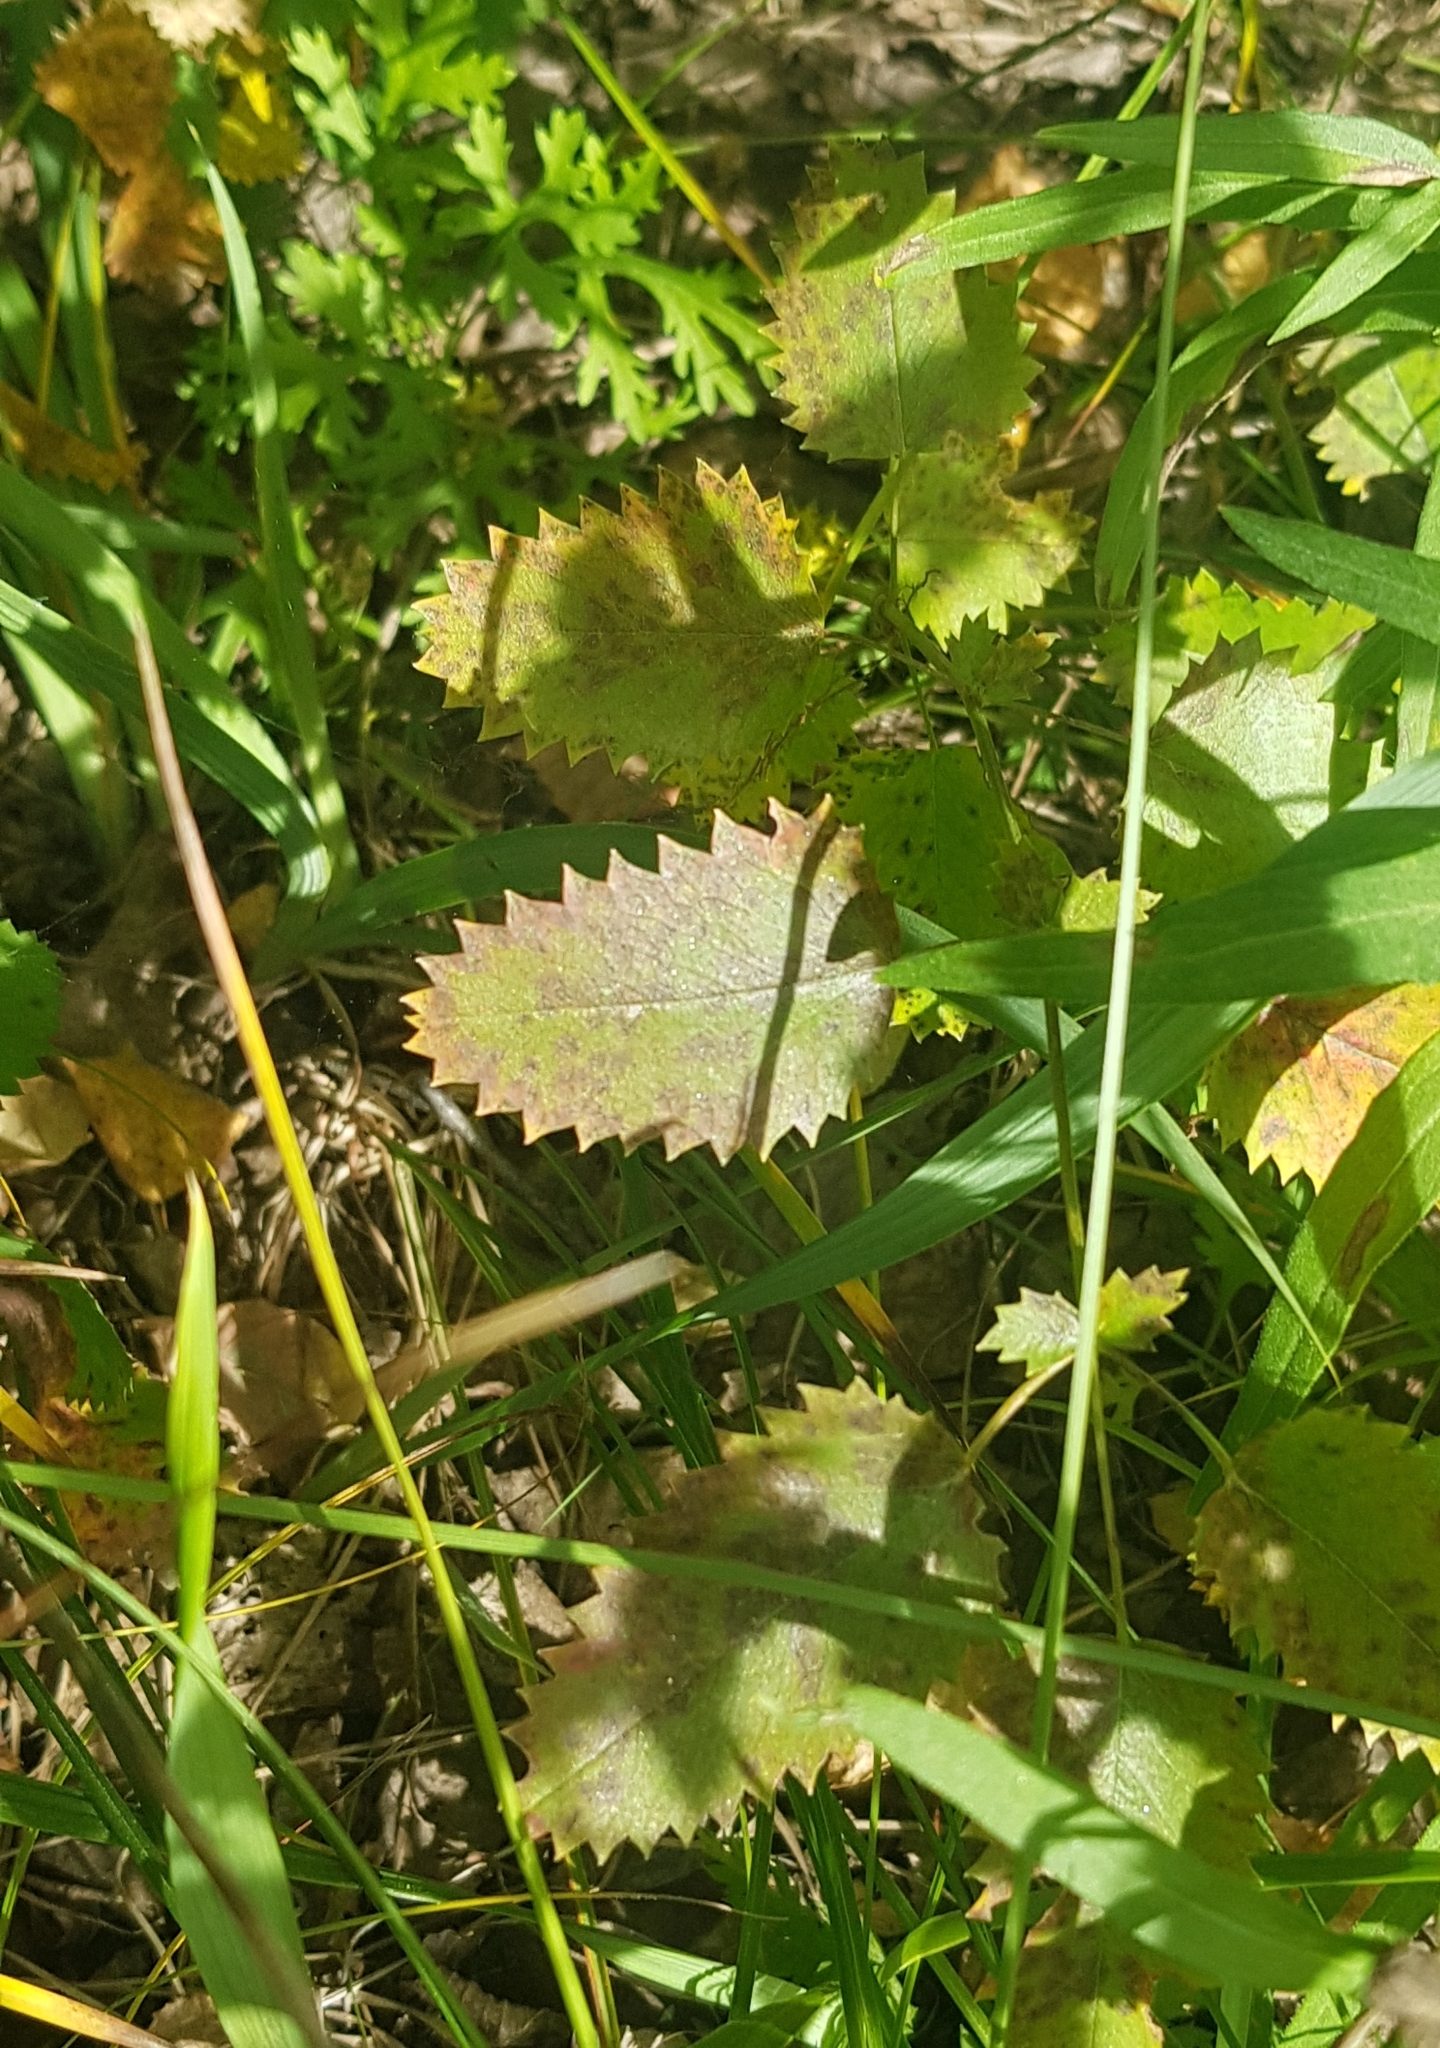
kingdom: Plantae
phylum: Tracheophyta
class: Magnoliopsida
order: Rosales
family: Rosaceae
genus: Sanguisorba
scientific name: Sanguisorba officinalis
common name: Great burnet
